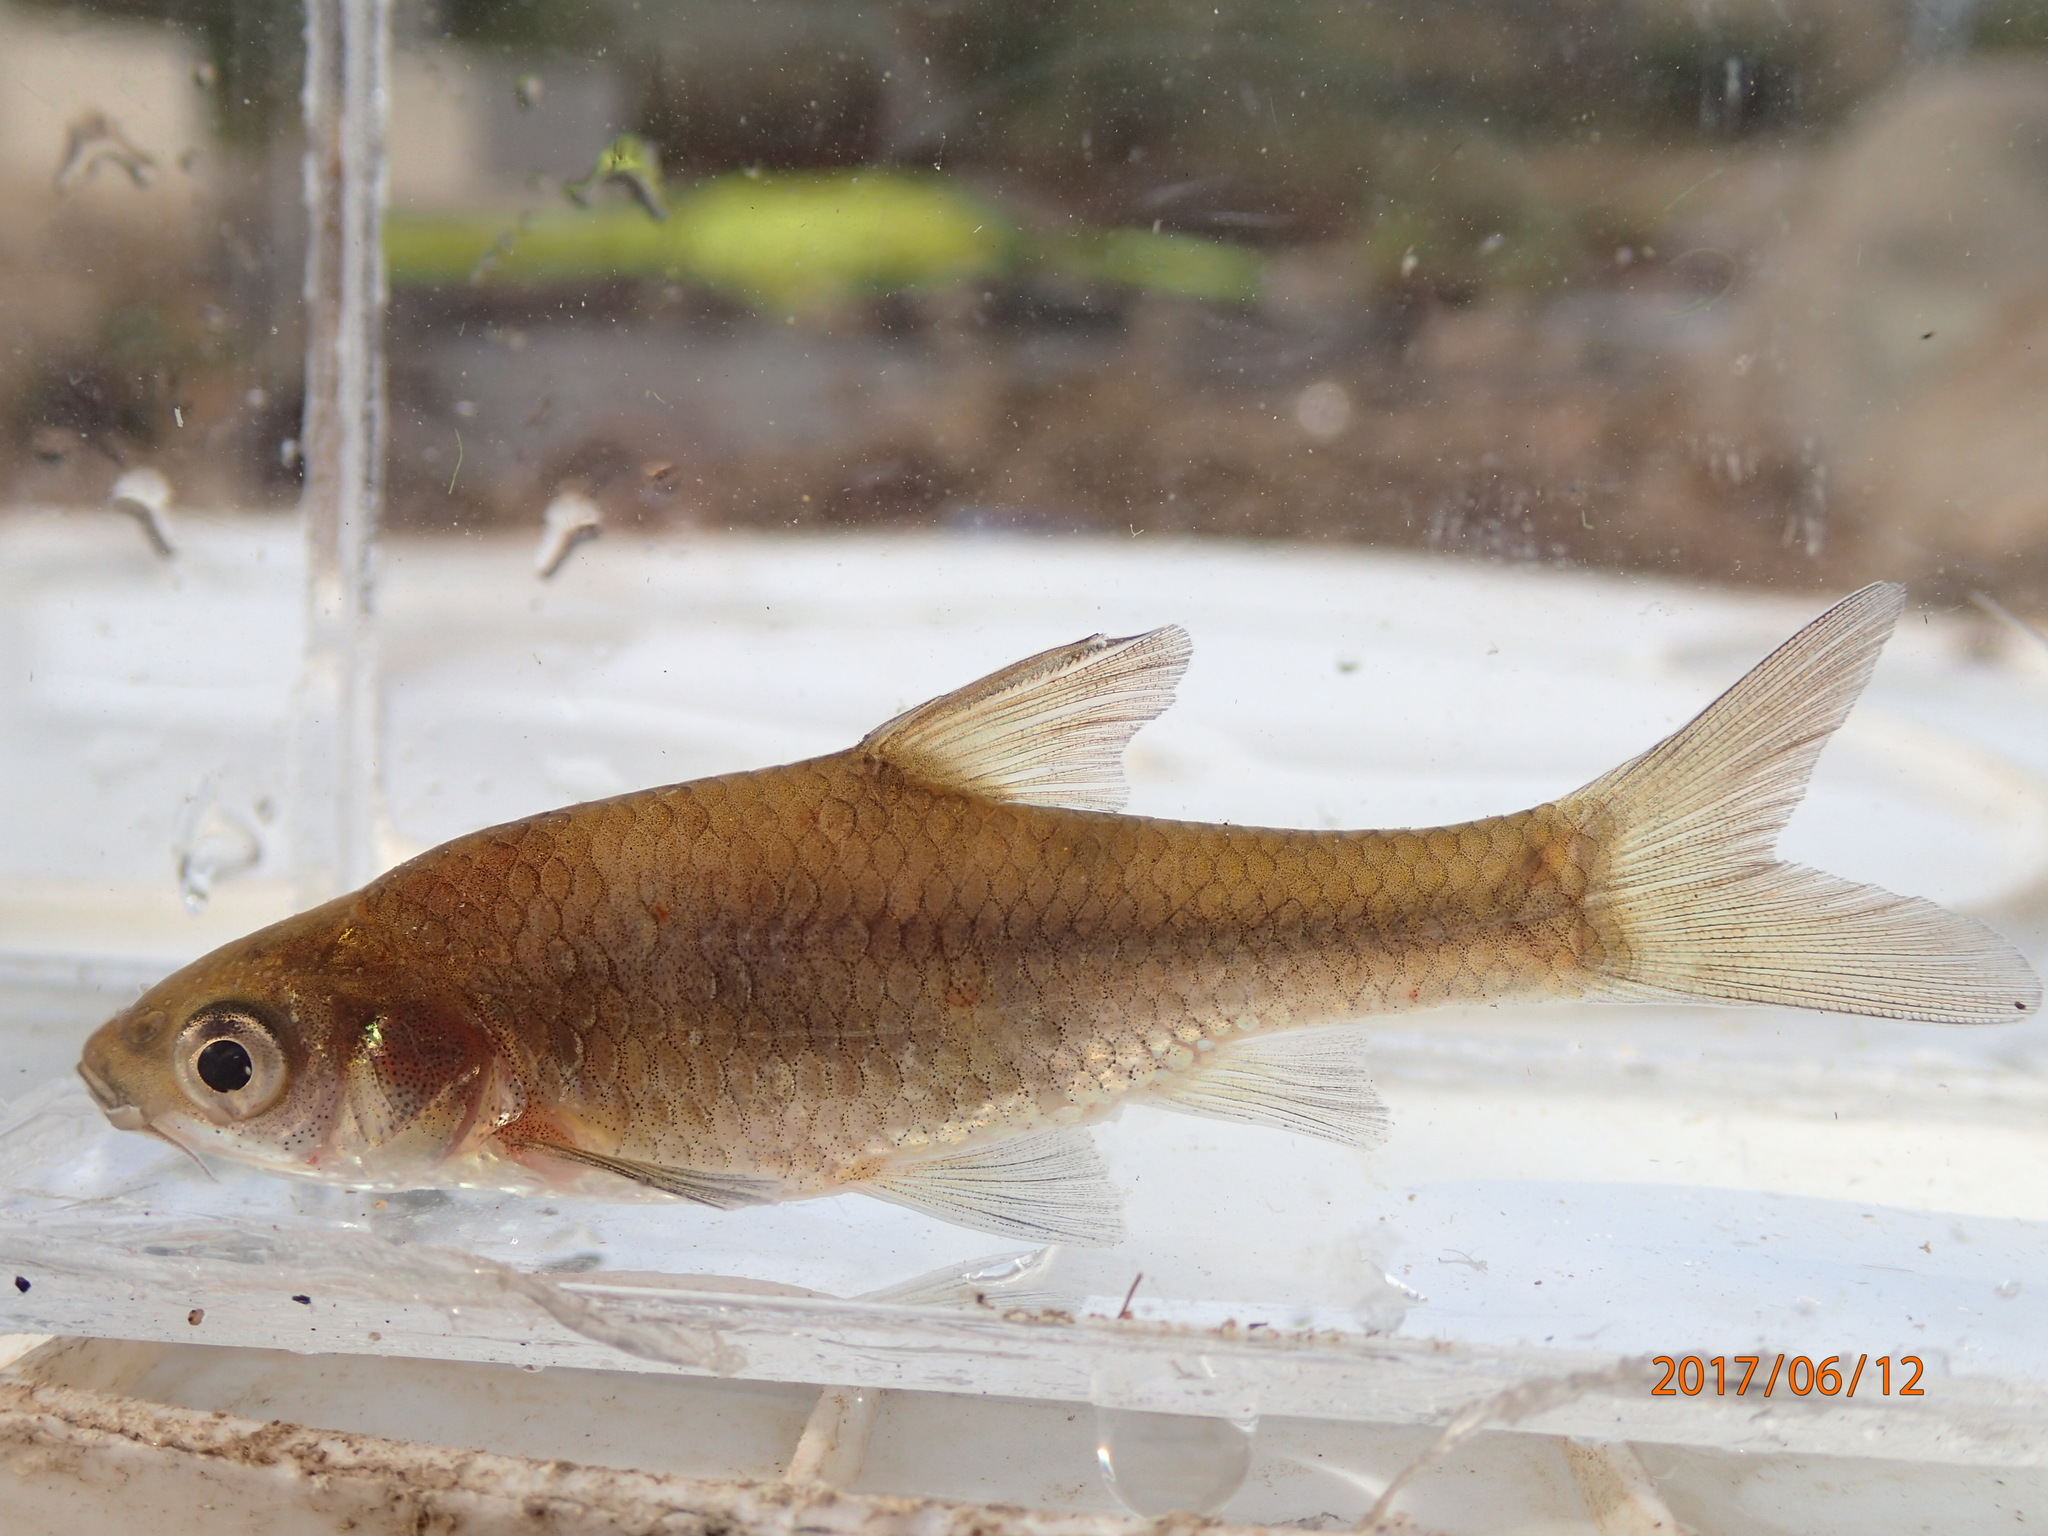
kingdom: Animalia
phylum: Chordata
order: Cypriniformes
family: Cyprinidae
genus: Enteromius
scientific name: Enteromius paludinosus
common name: Straightfin barb
